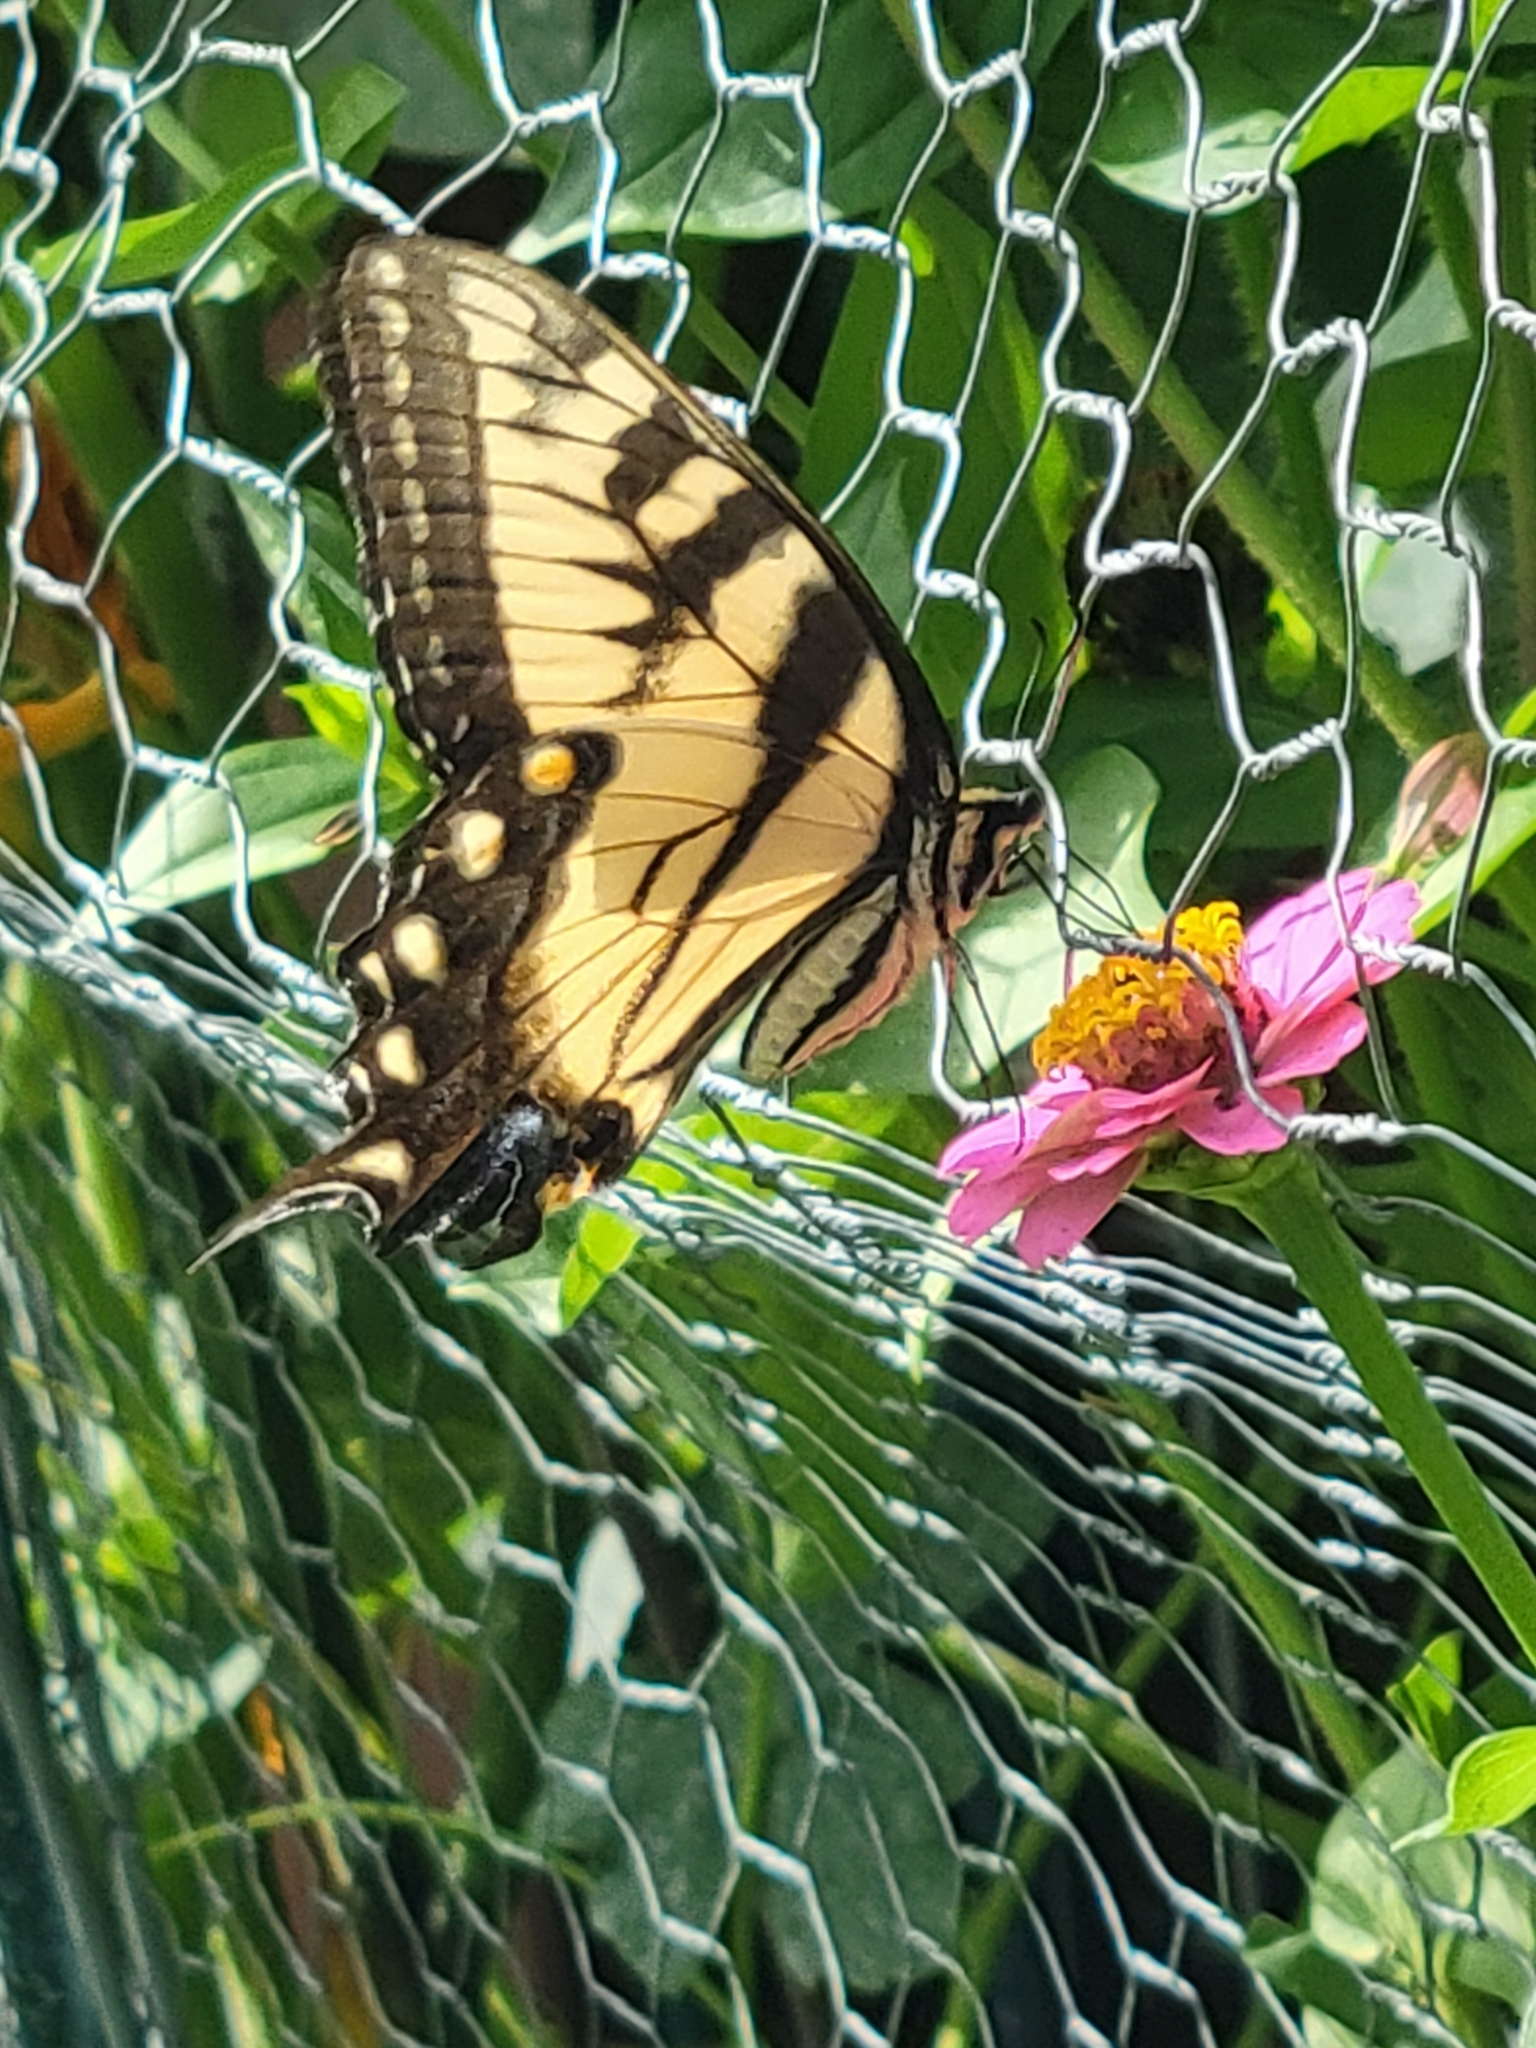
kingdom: Animalia
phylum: Arthropoda
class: Insecta
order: Lepidoptera
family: Papilionidae
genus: Papilio
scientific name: Papilio glaucus
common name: Tiger swallowtail
